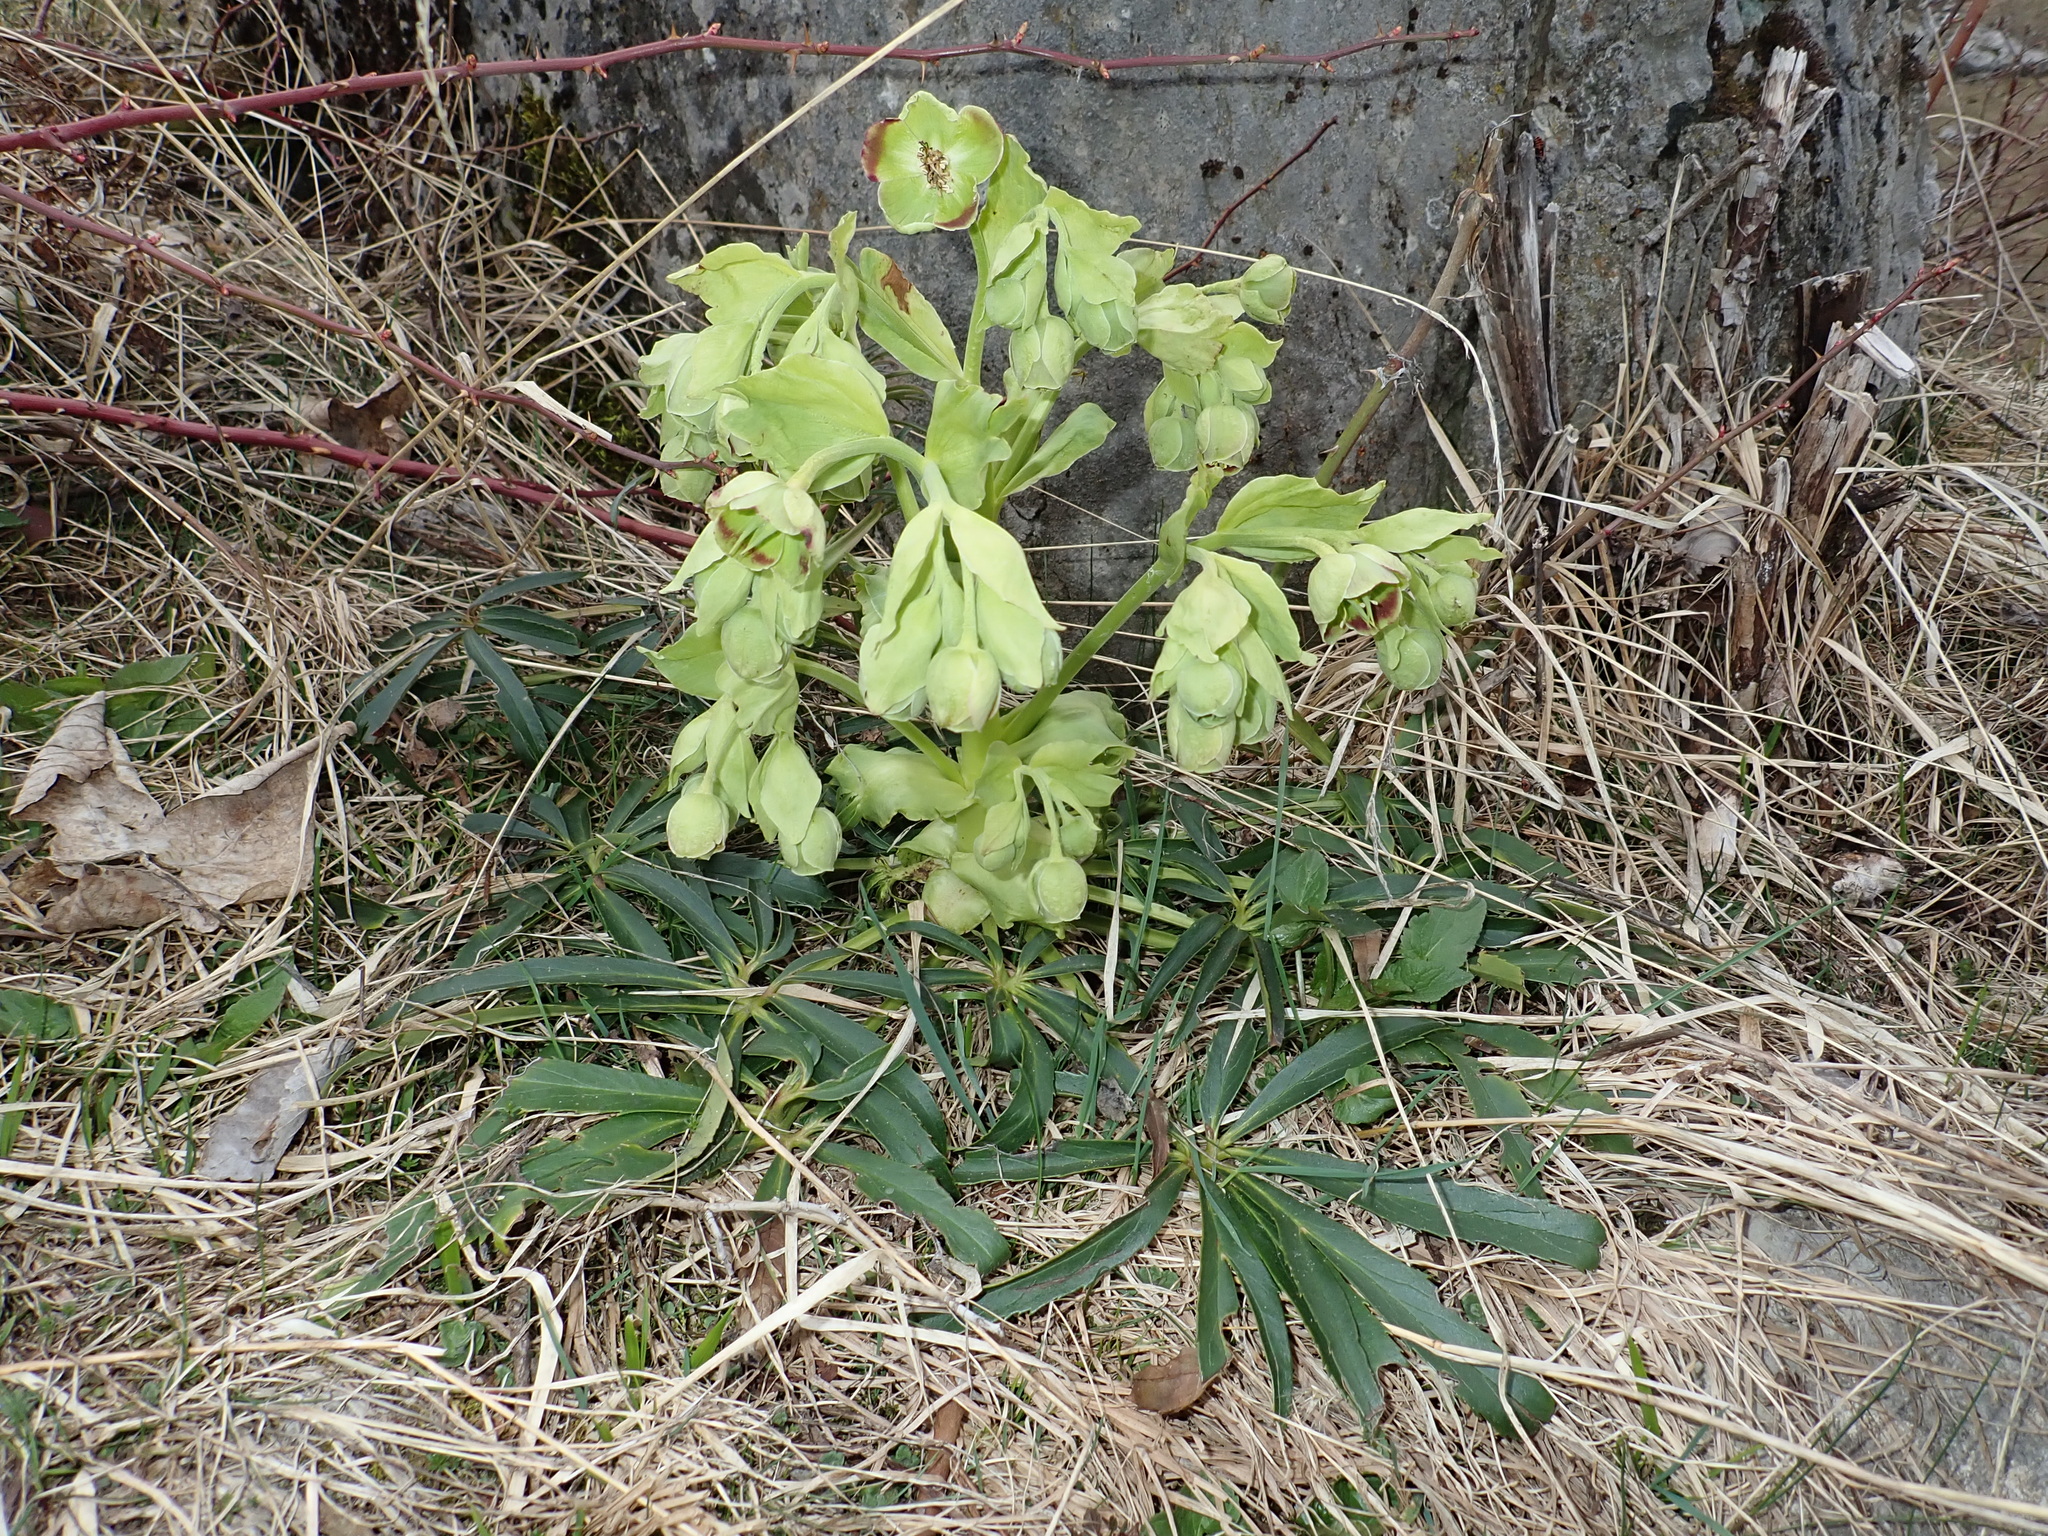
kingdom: Plantae
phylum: Tracheophyta
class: Magnoliopsida
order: Ranunculales
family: Ranunculaceae
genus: Helleborus
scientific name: Helleborus foetidus
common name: Stinking hellebore
